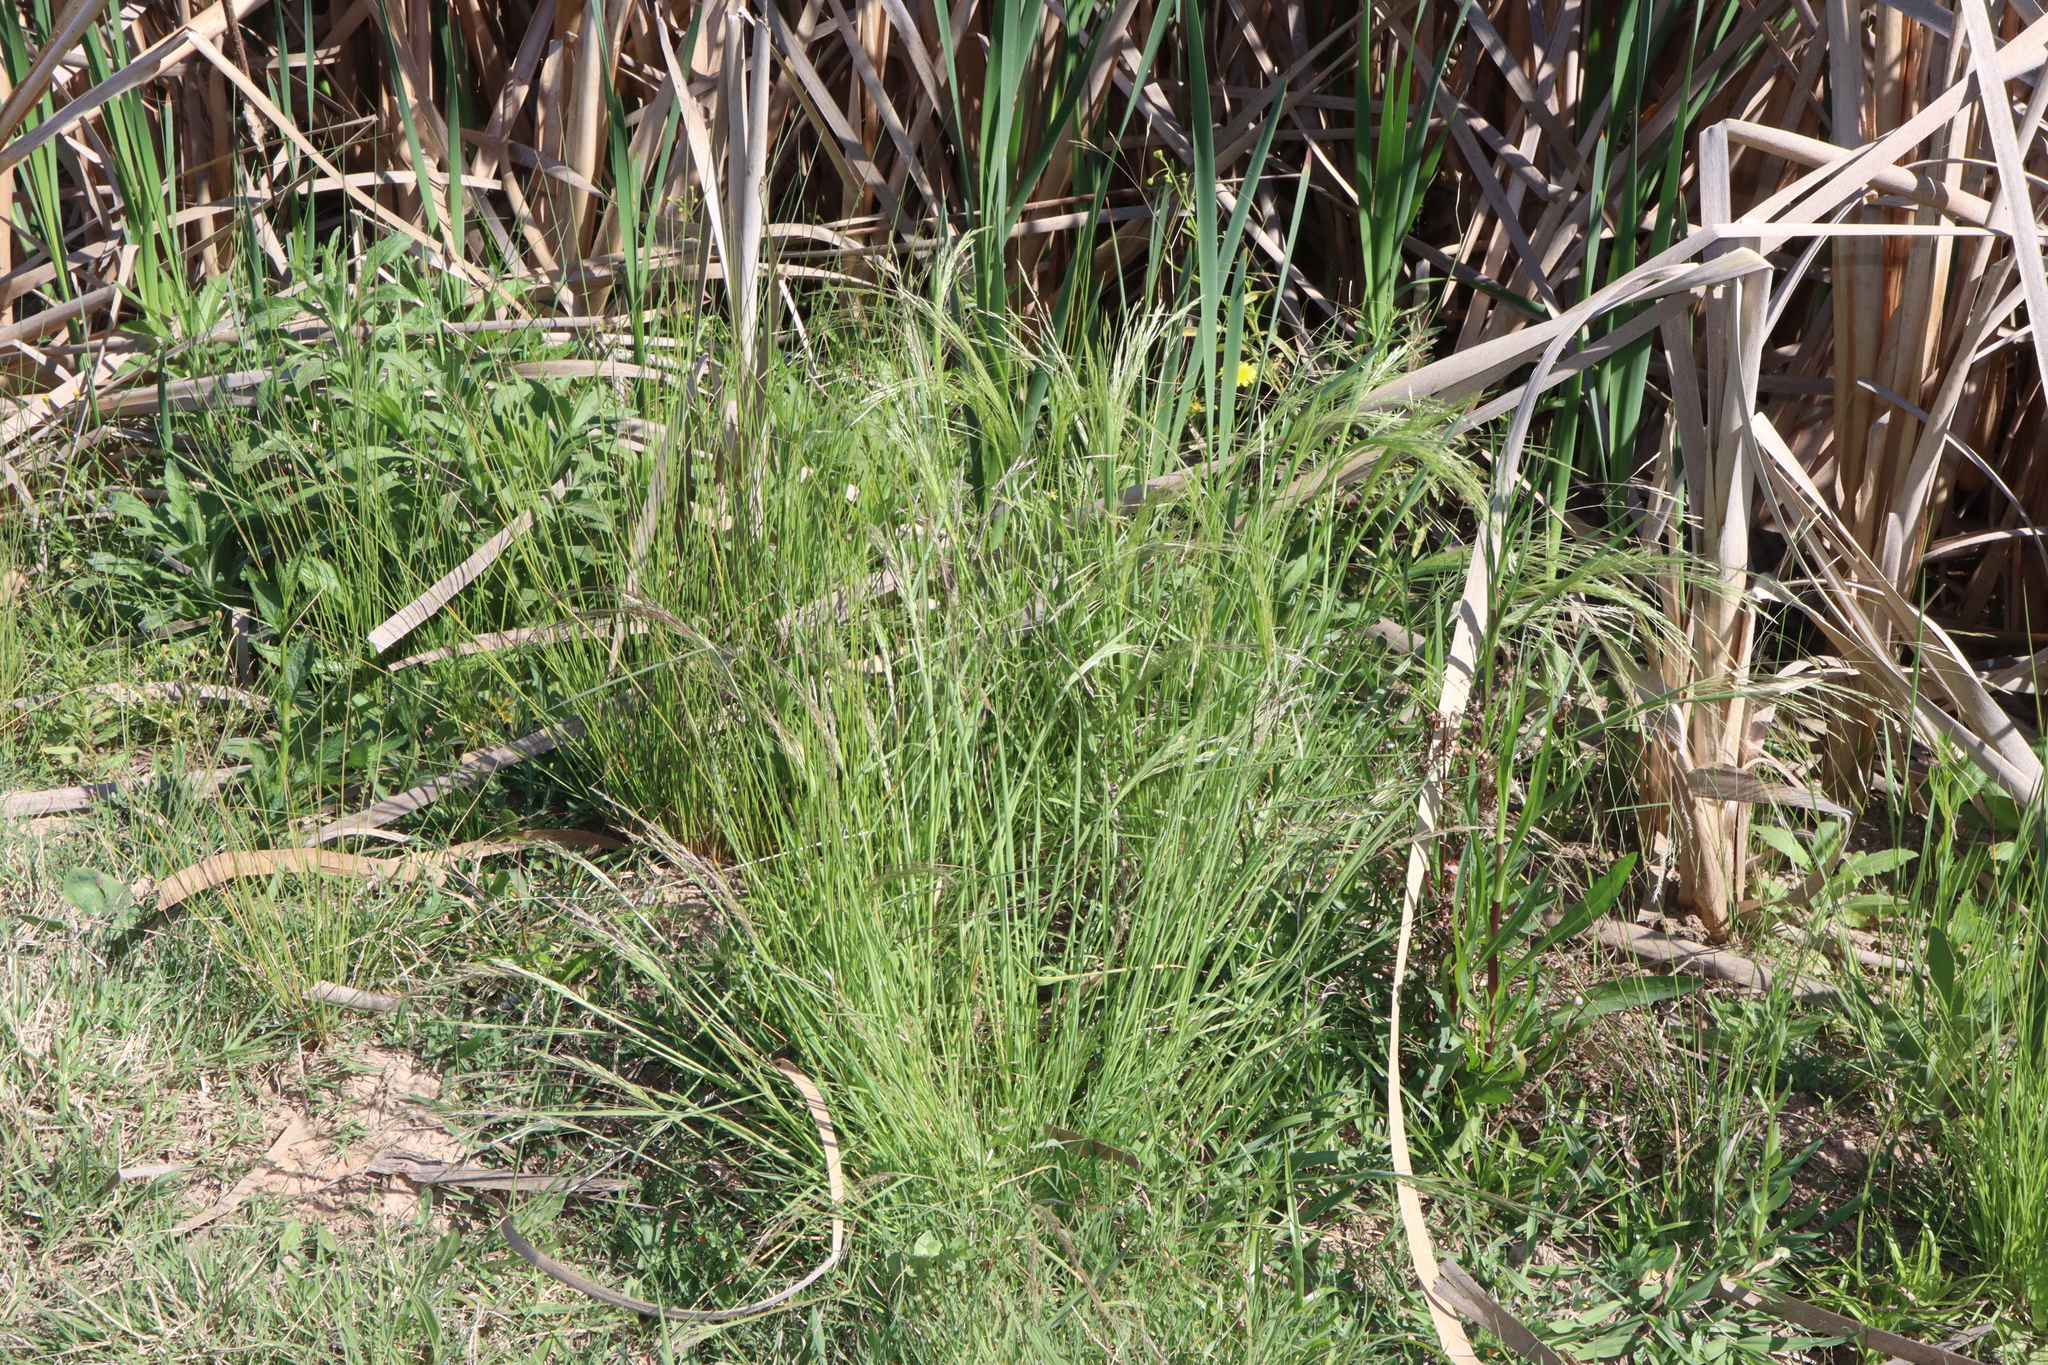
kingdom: Plantae
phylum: Tracheophyta
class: Liliopsida
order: Poales
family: Poaceae
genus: Lachnagrostis
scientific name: Lachnagrostis filiformis
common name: Bentgrass
